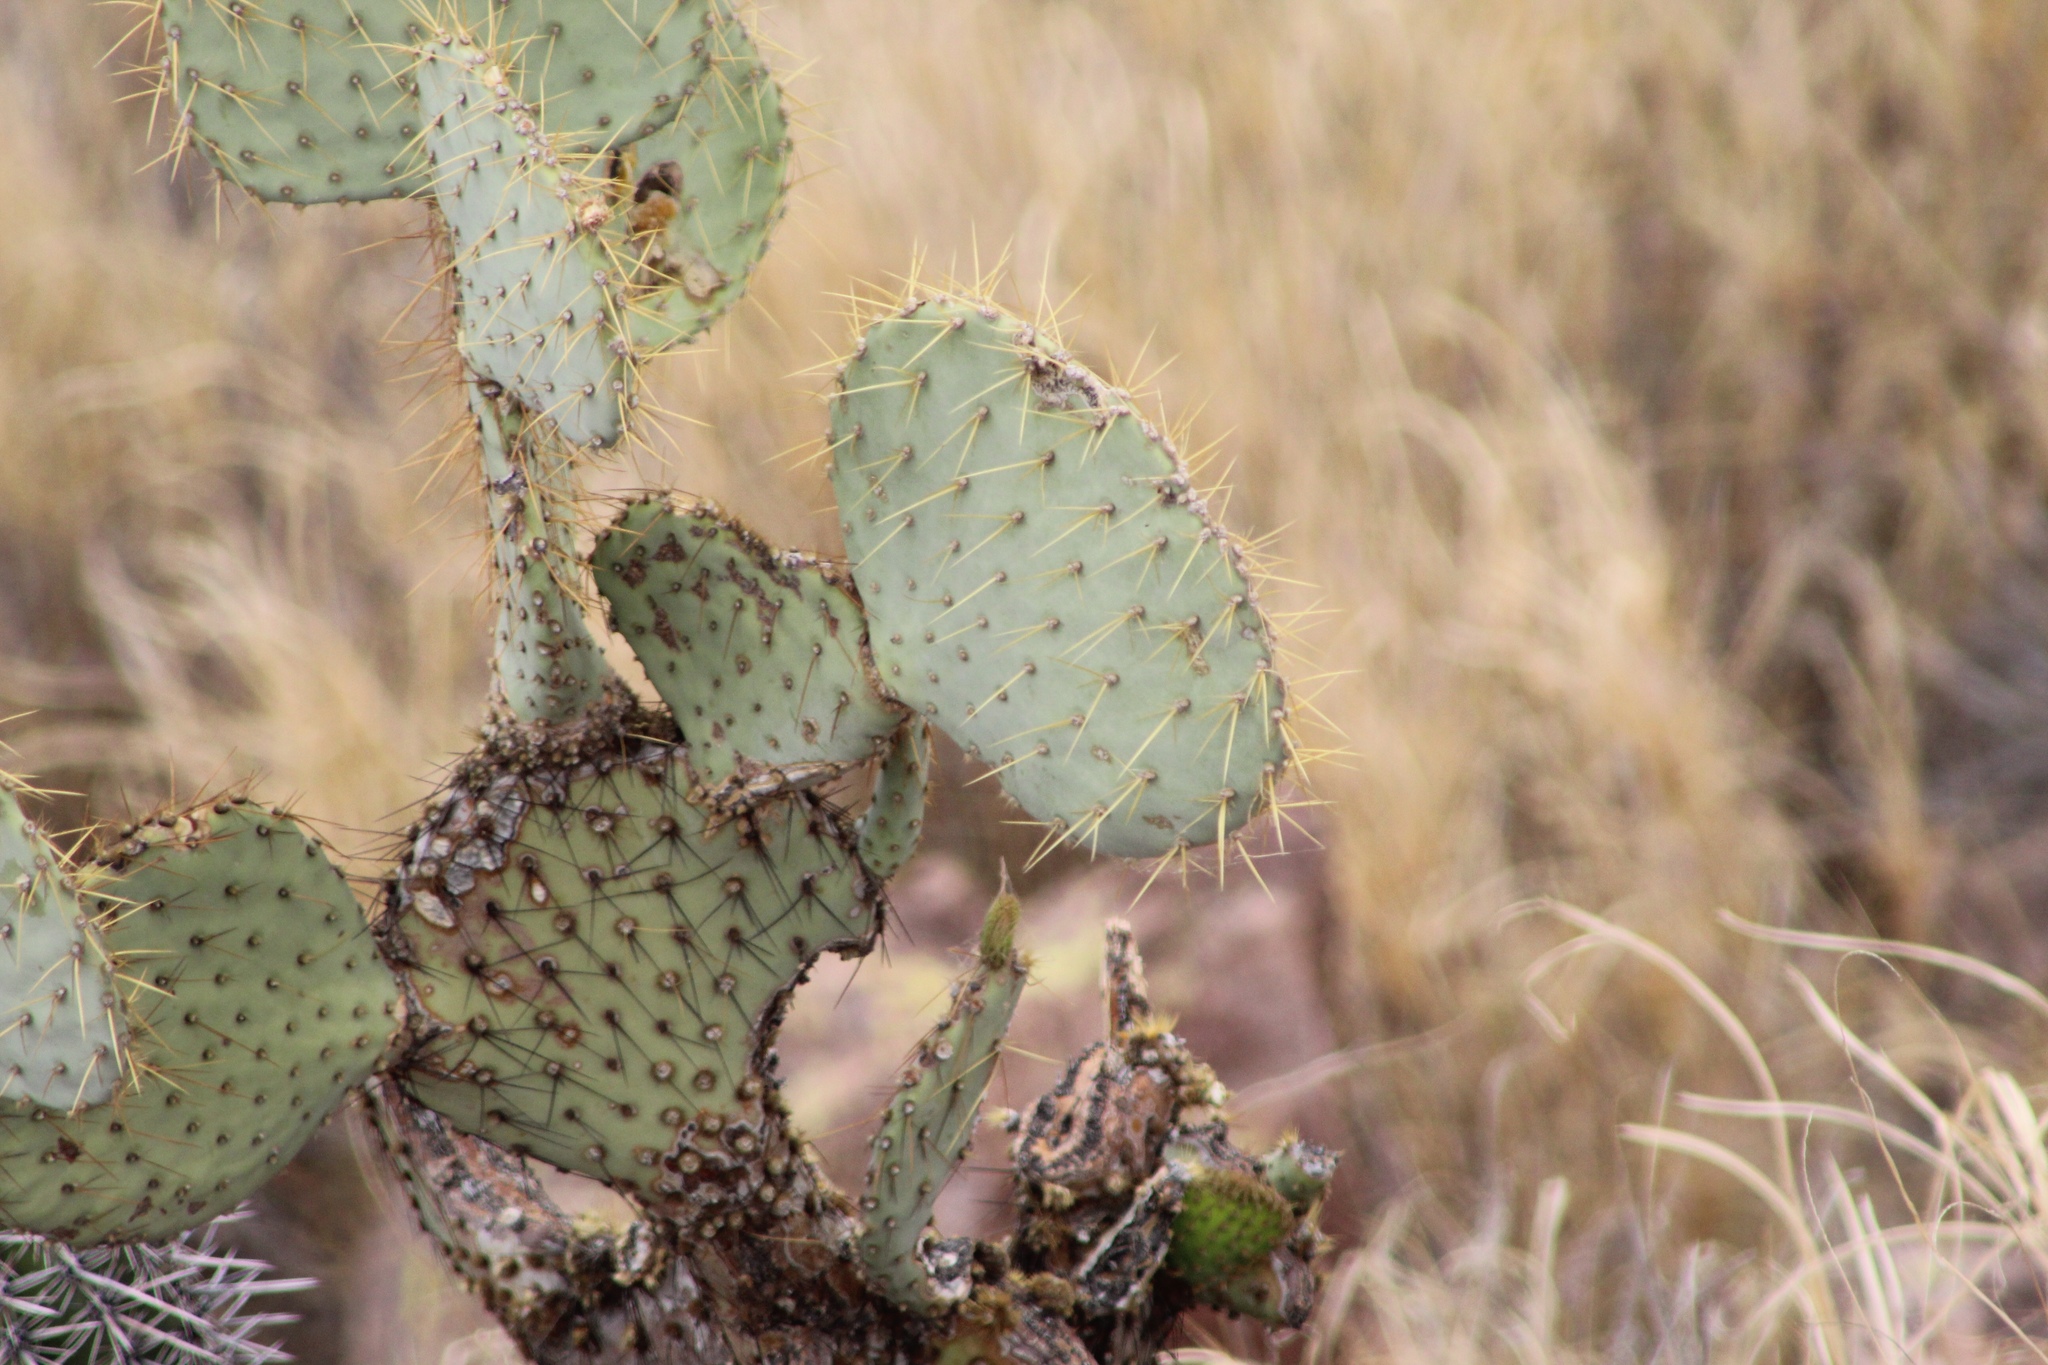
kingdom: Plantae
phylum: Tracheophyta
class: Magnoliopsida
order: Caryophyllales
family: Cactaceae
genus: Opuntia
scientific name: Opuntia chlorotica
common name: Dollar-joint prickly-pear
